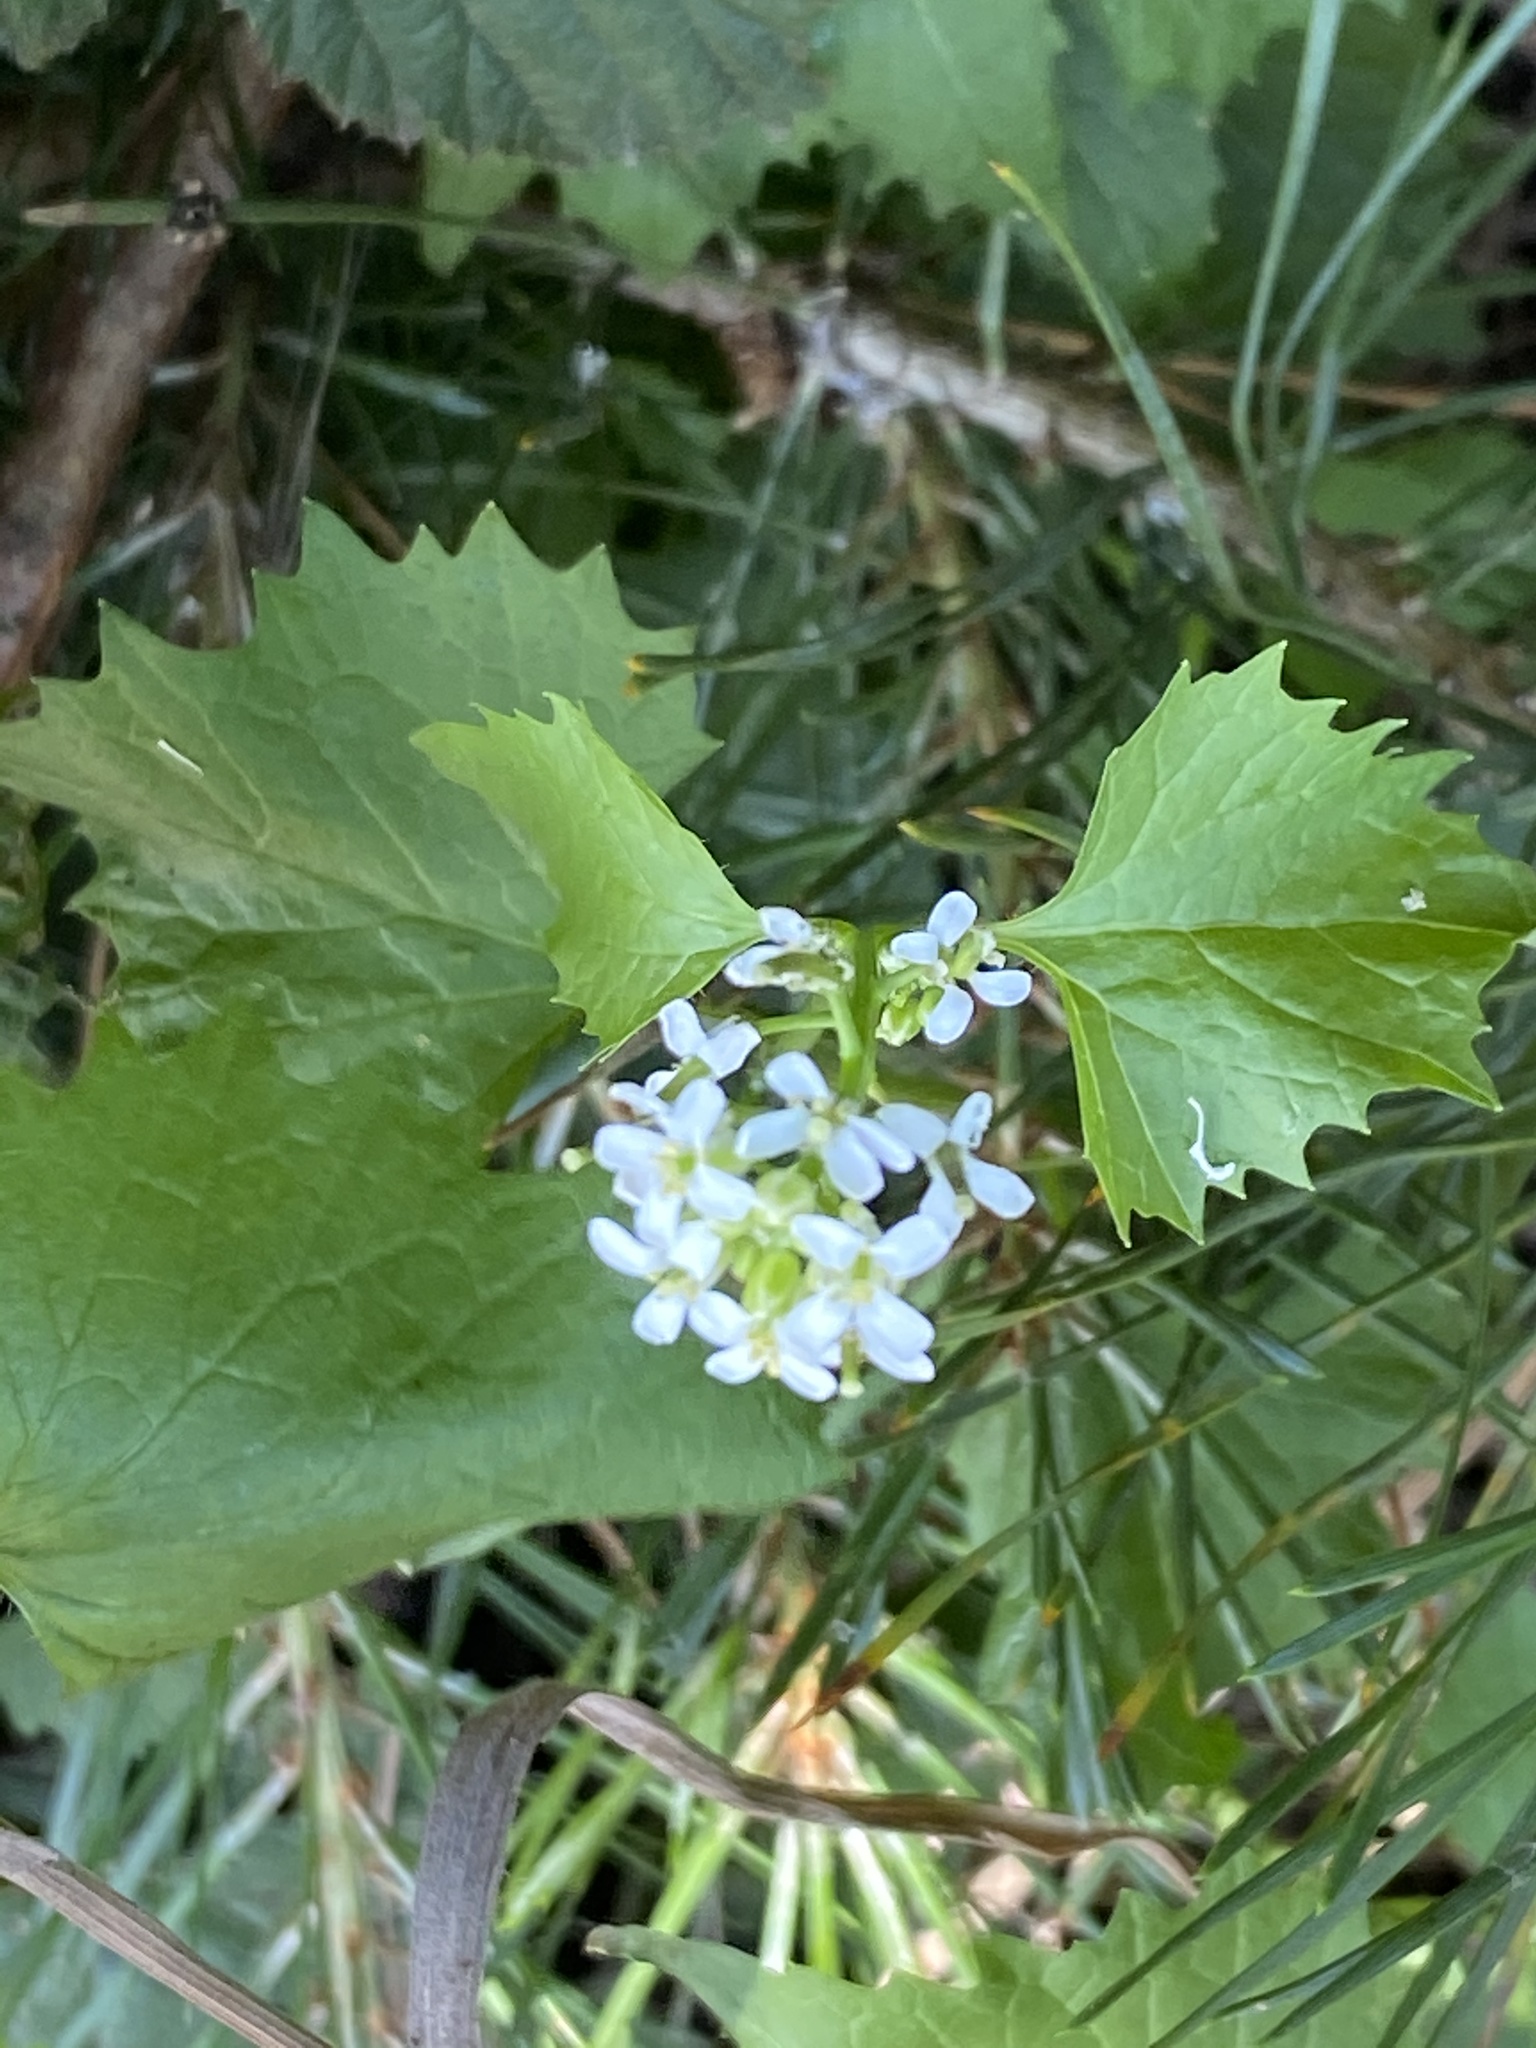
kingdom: Plantae
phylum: Tracheophyta
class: Magnoliopsida
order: Brassicales
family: Brassicaceae
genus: Alliaria
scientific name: Alliaria petiolata
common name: Garlic mustard
